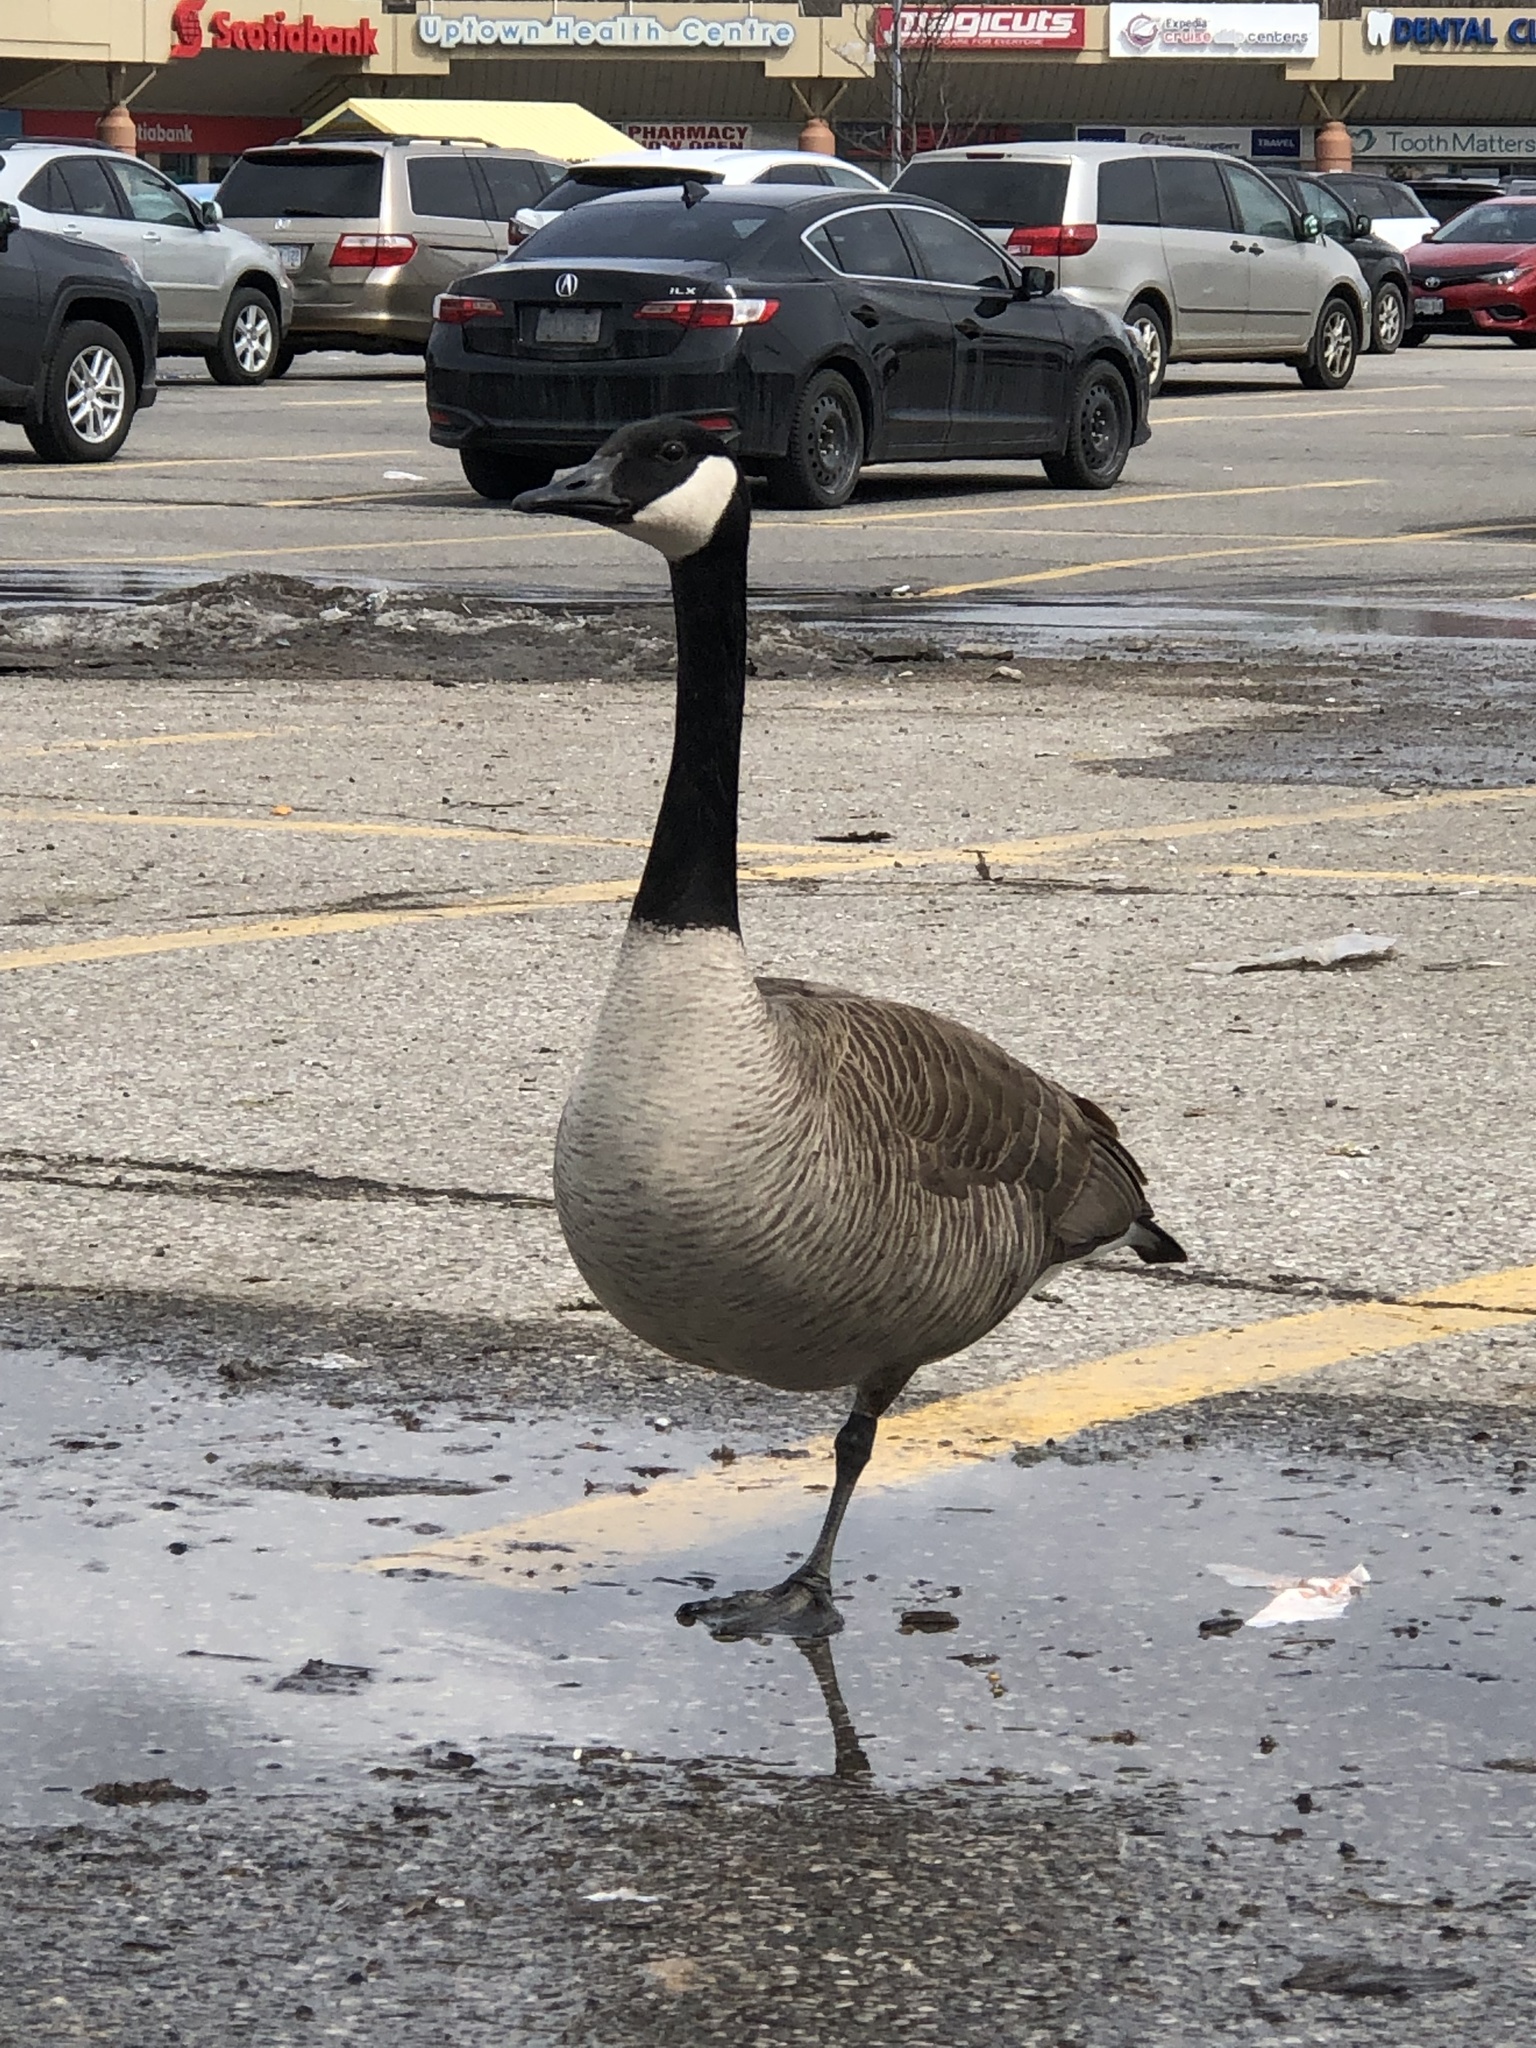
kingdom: Animalia
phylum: Chordata
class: Aves
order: Anseriformes
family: Anatidae
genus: Branta
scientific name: Branta canadensis
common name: Canada goose
